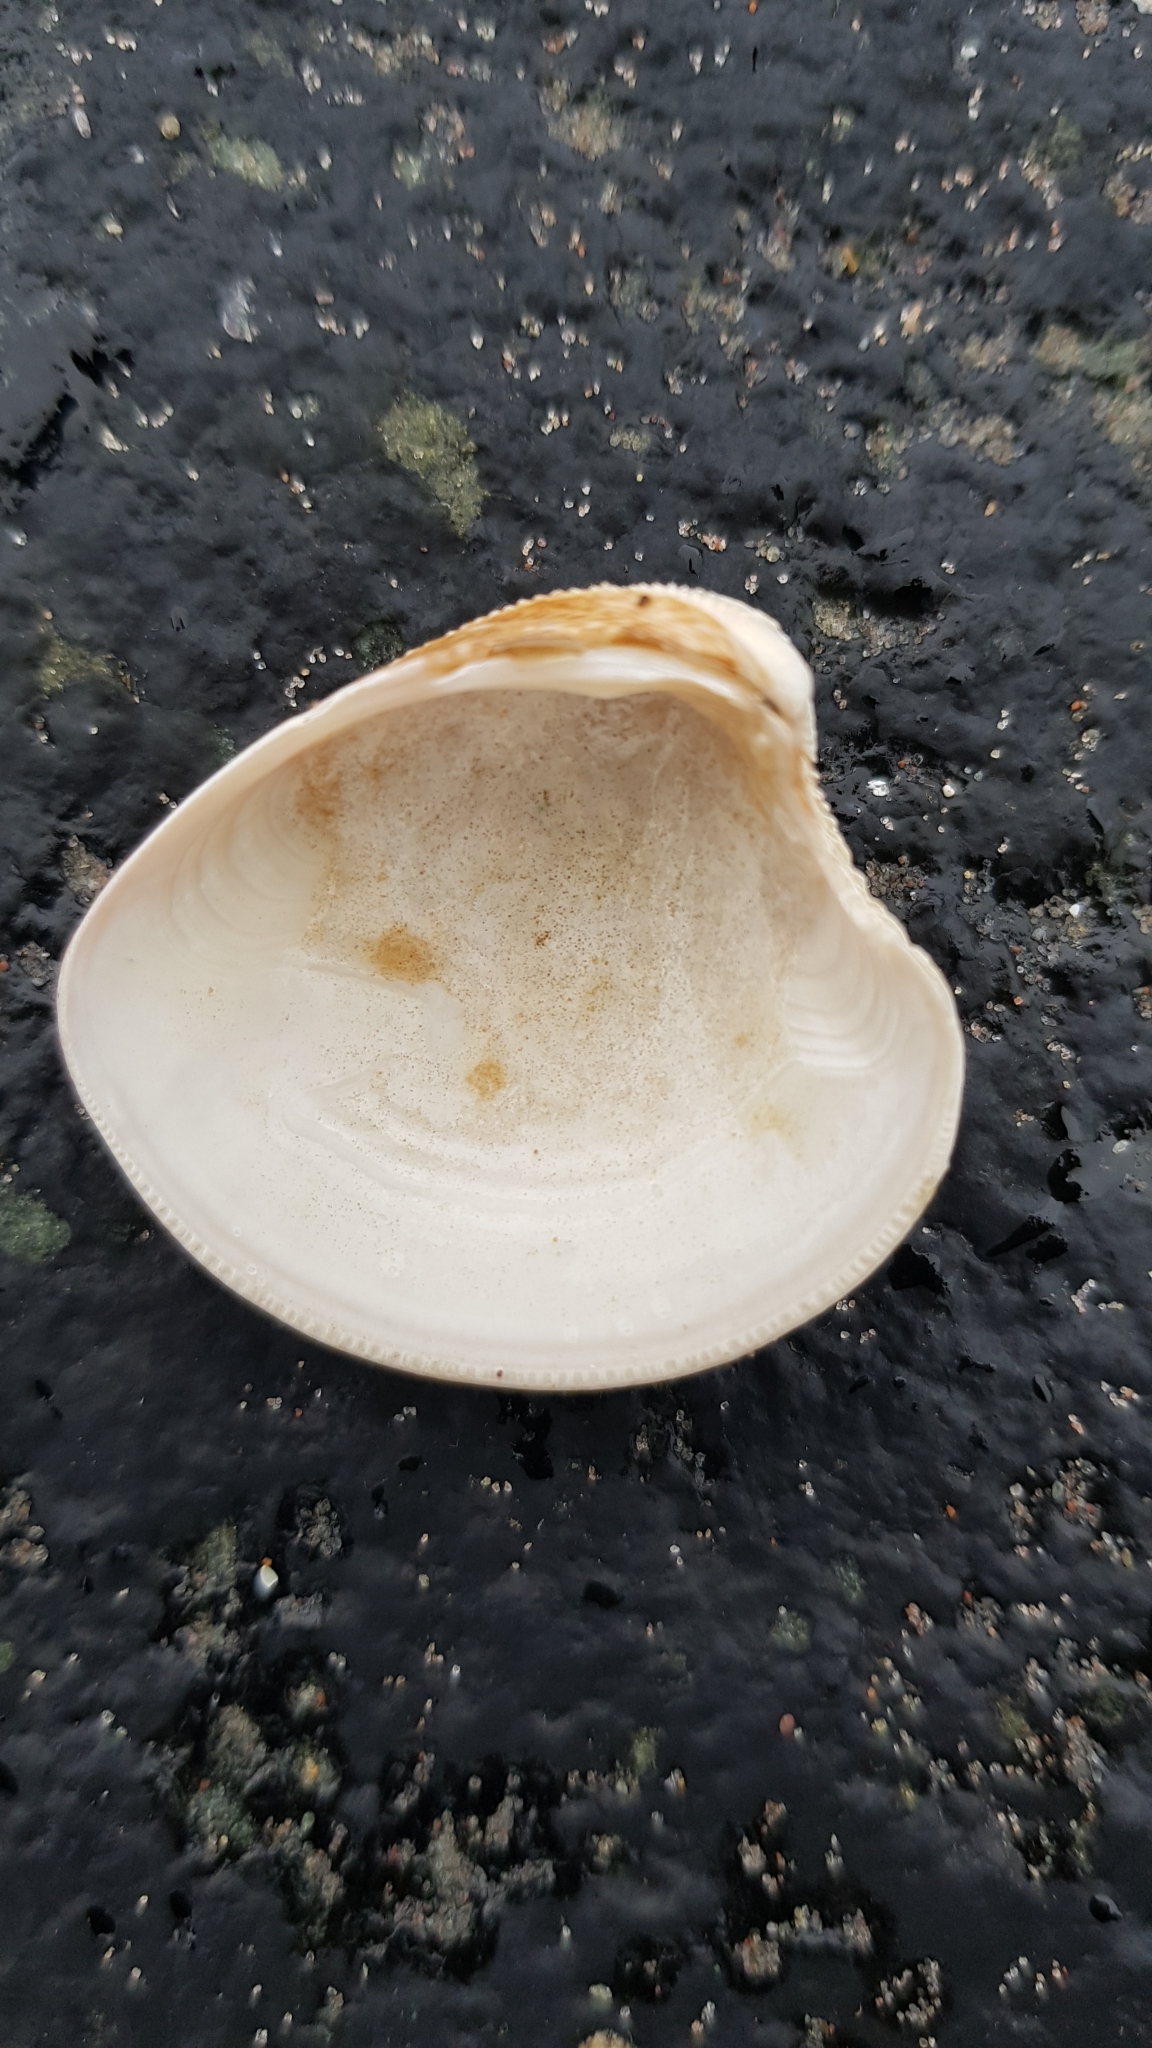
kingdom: Animalia
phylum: Mollusca
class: Bivalvia
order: Venerida
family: Veneridae
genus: Chamelea
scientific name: Chamelea striatula
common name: Striped venus
